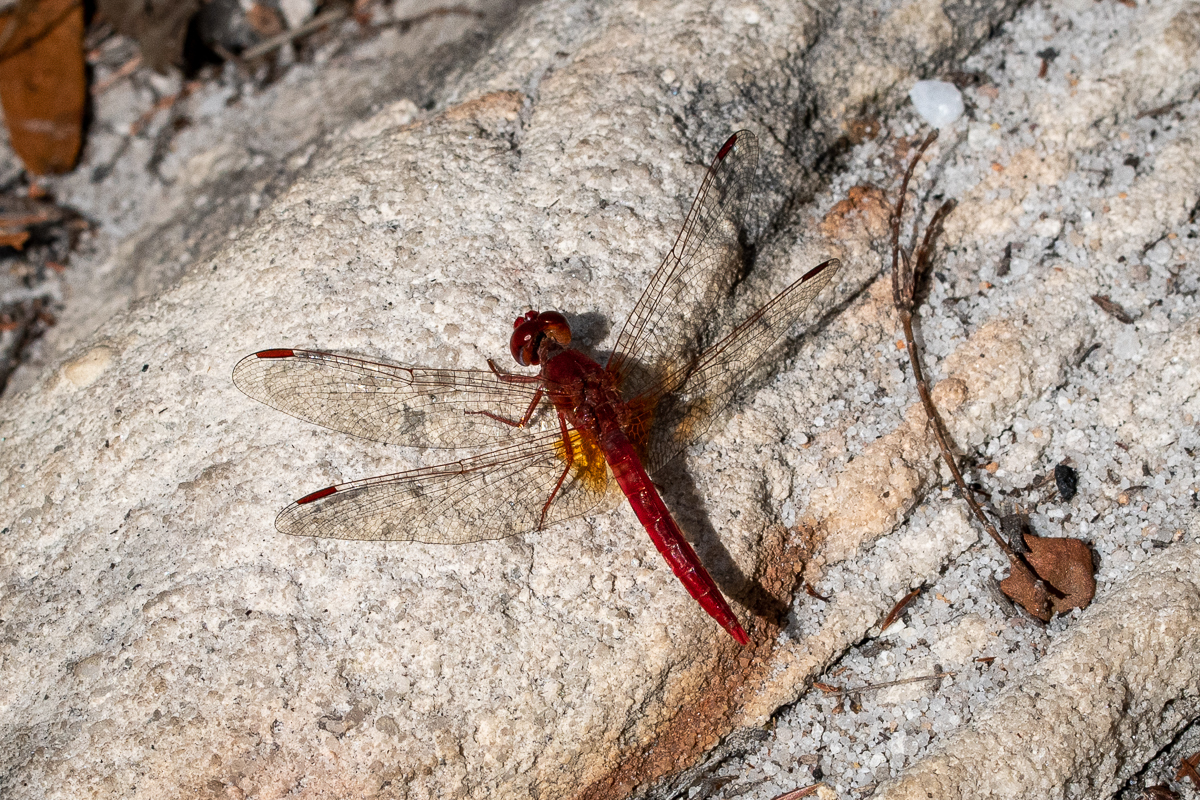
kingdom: Animalia
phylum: Arthropoda
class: Insecta
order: Odonata
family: Libellulidae
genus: Crocothemis
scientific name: Crocothemis sanguinolenta
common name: Little scarlet
